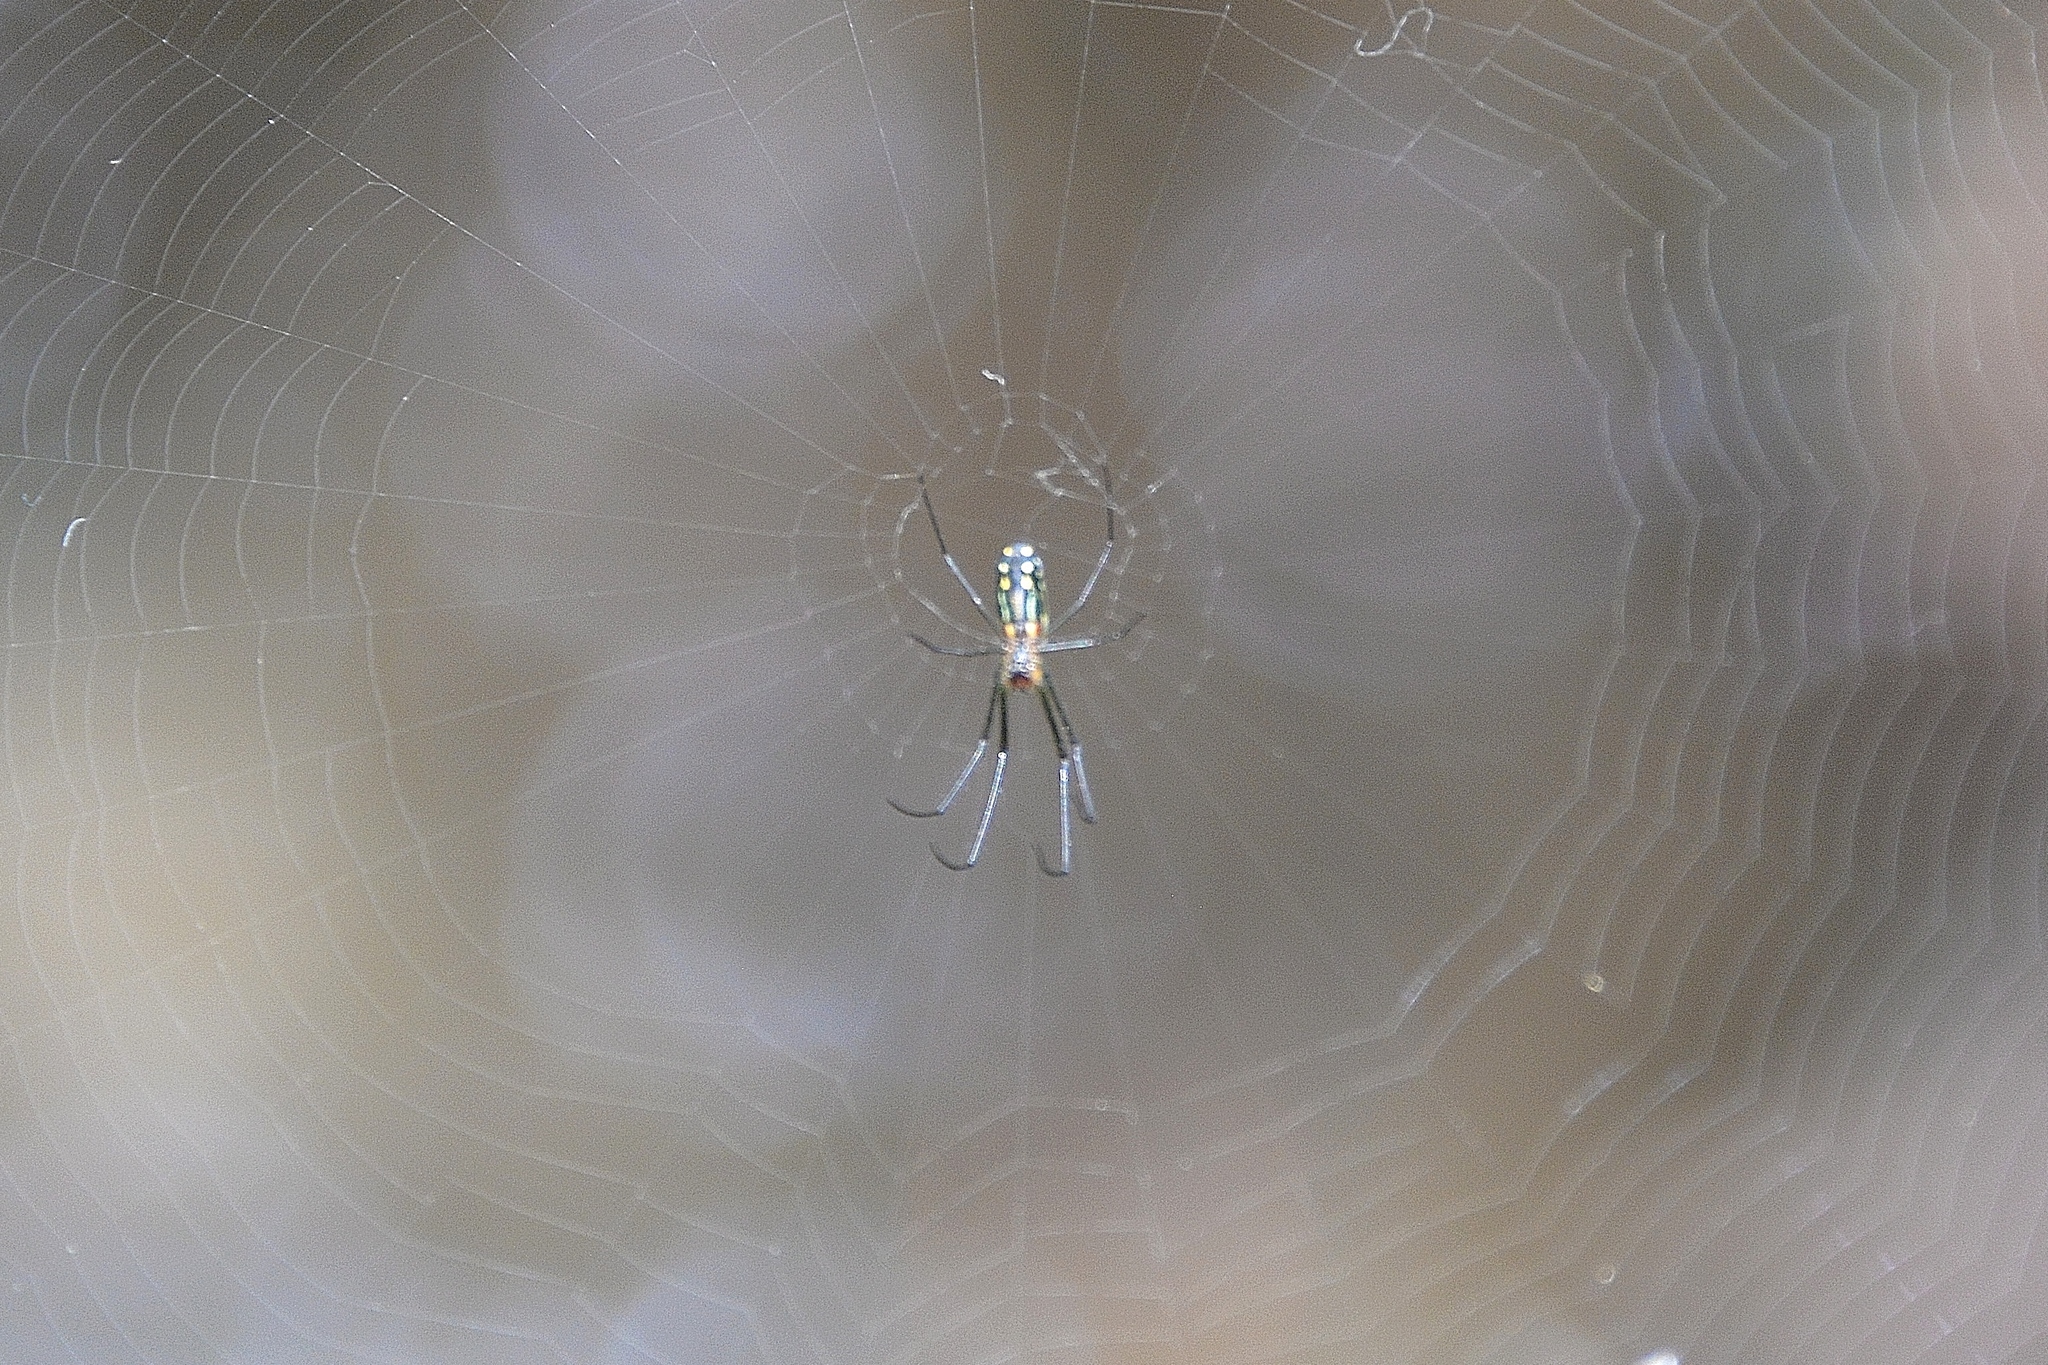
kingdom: Animalia
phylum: Arthropoda
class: Arachnida
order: Araneae
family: Tetragnathidae
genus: Leucauge
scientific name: Leucauge argyra
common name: Longjawed orb weavers
